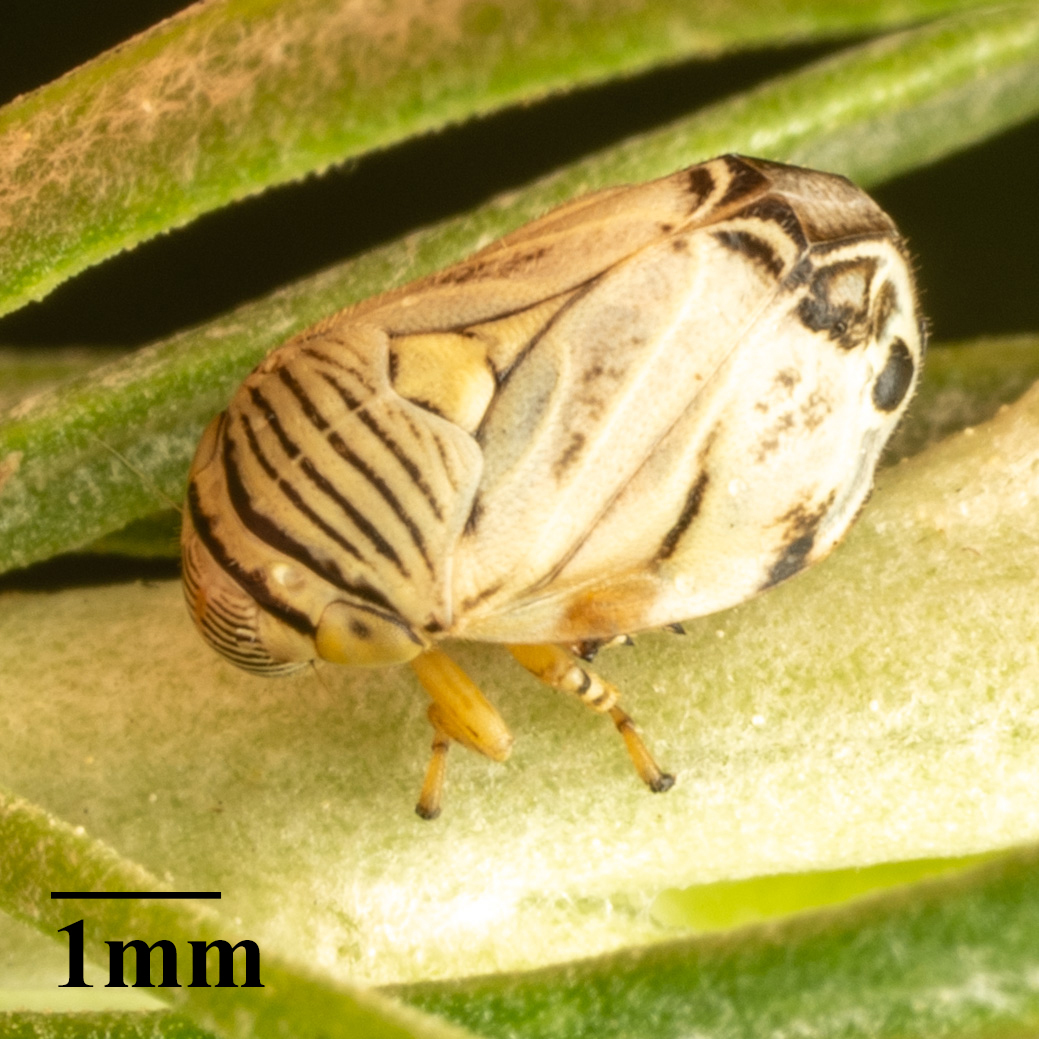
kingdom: Animalia
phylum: Arthropoda
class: Insecta
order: Hemiptera
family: Clastopteridae
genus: Clastoptera
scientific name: Clastoptera delicata
